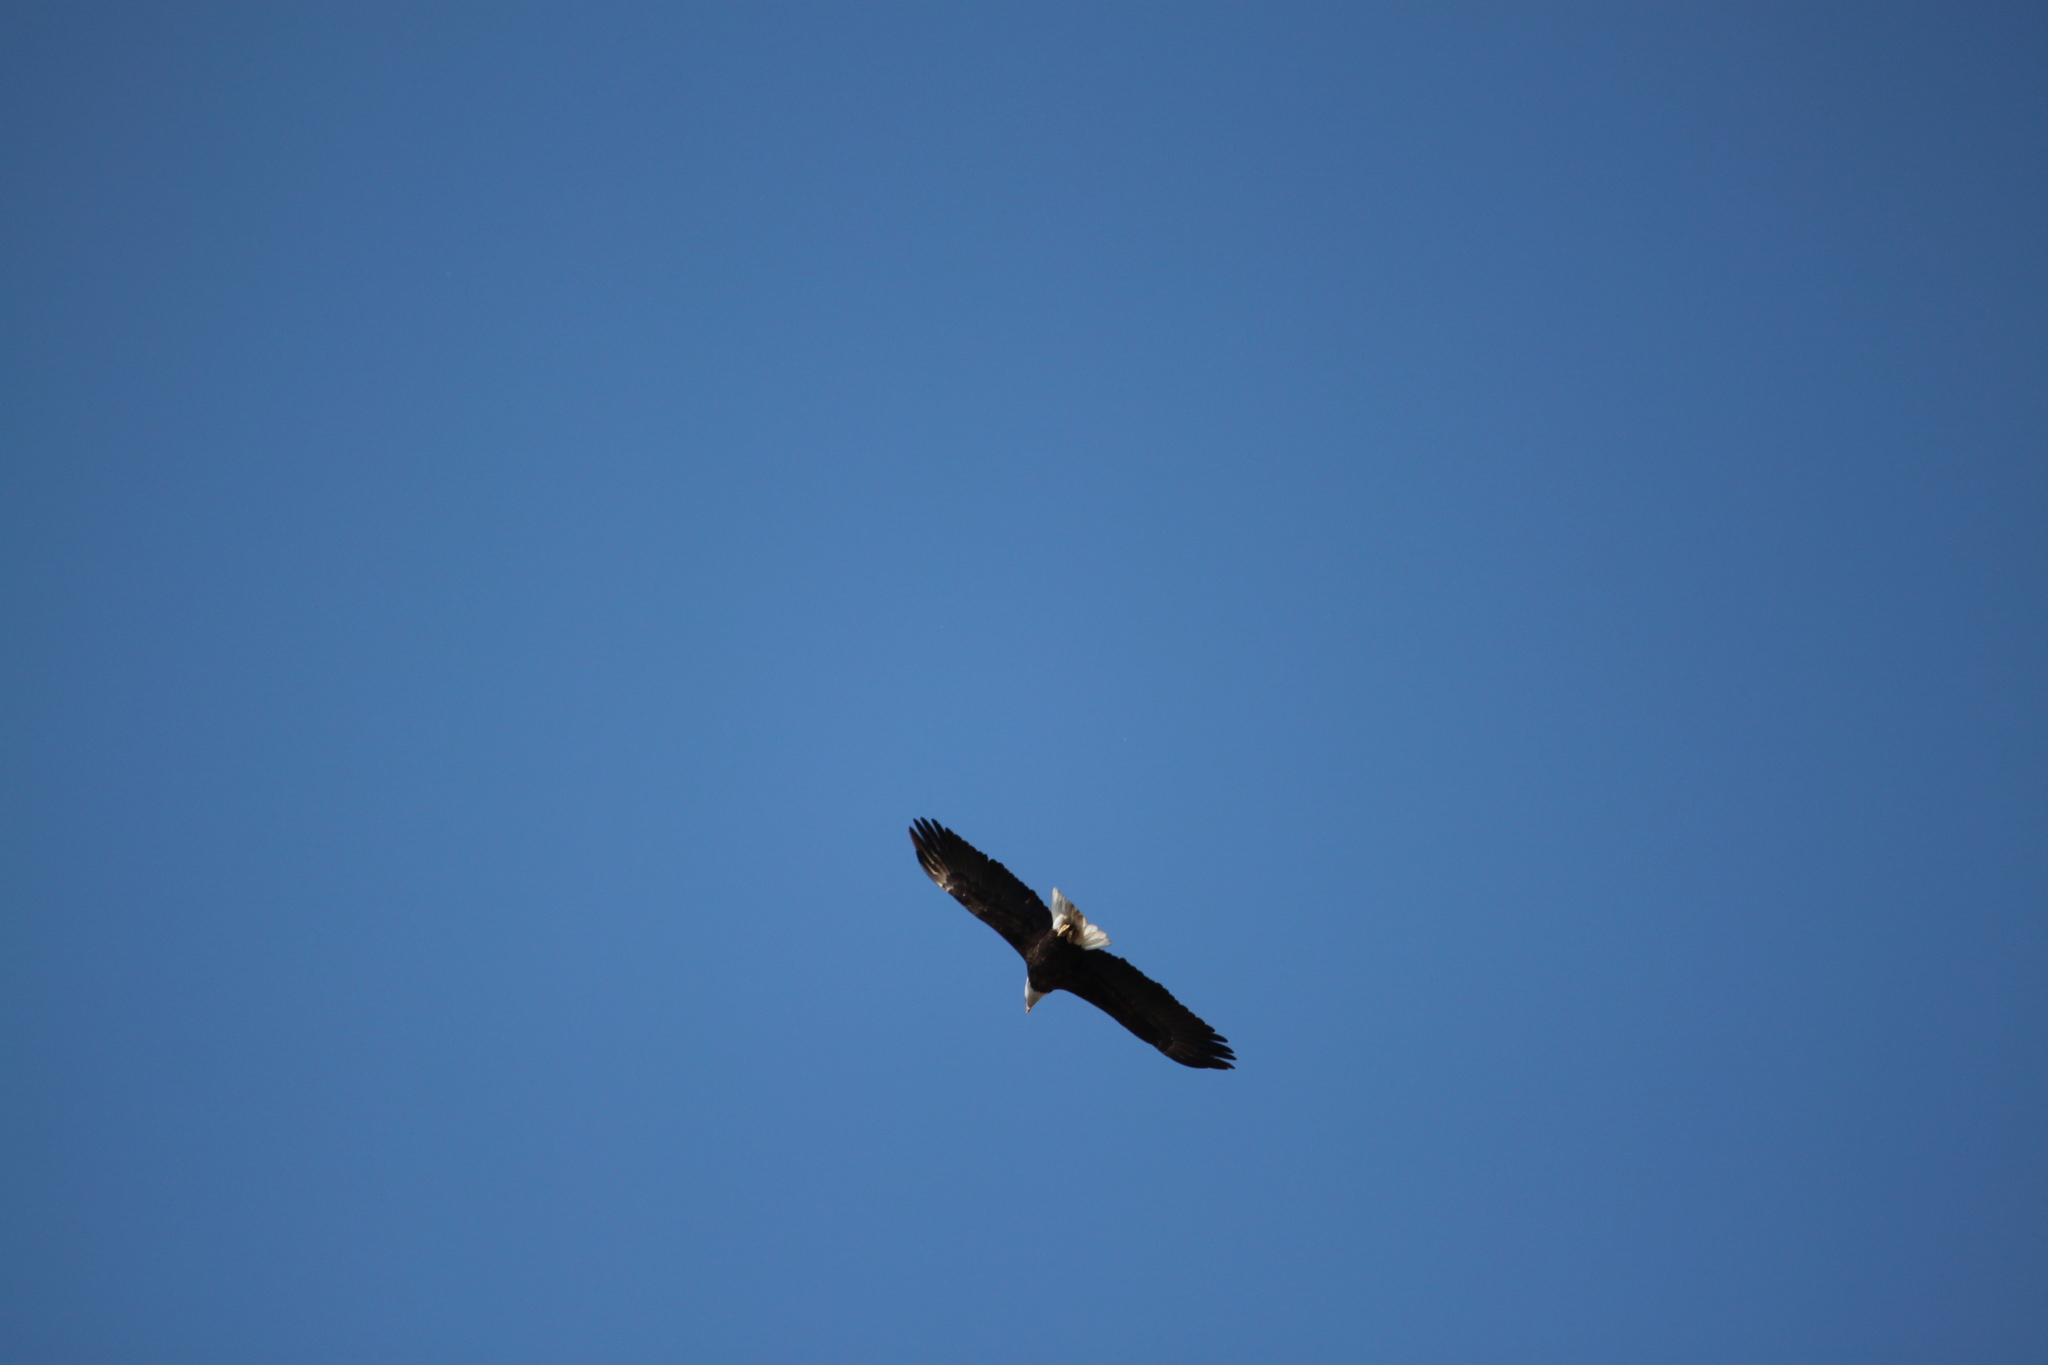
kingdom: Animalia
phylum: Chordata
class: Aves
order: Accipitriformes
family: Accipitridae
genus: Haliaeetus
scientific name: Haliaeetus leucocephalus
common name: Bald eagle
